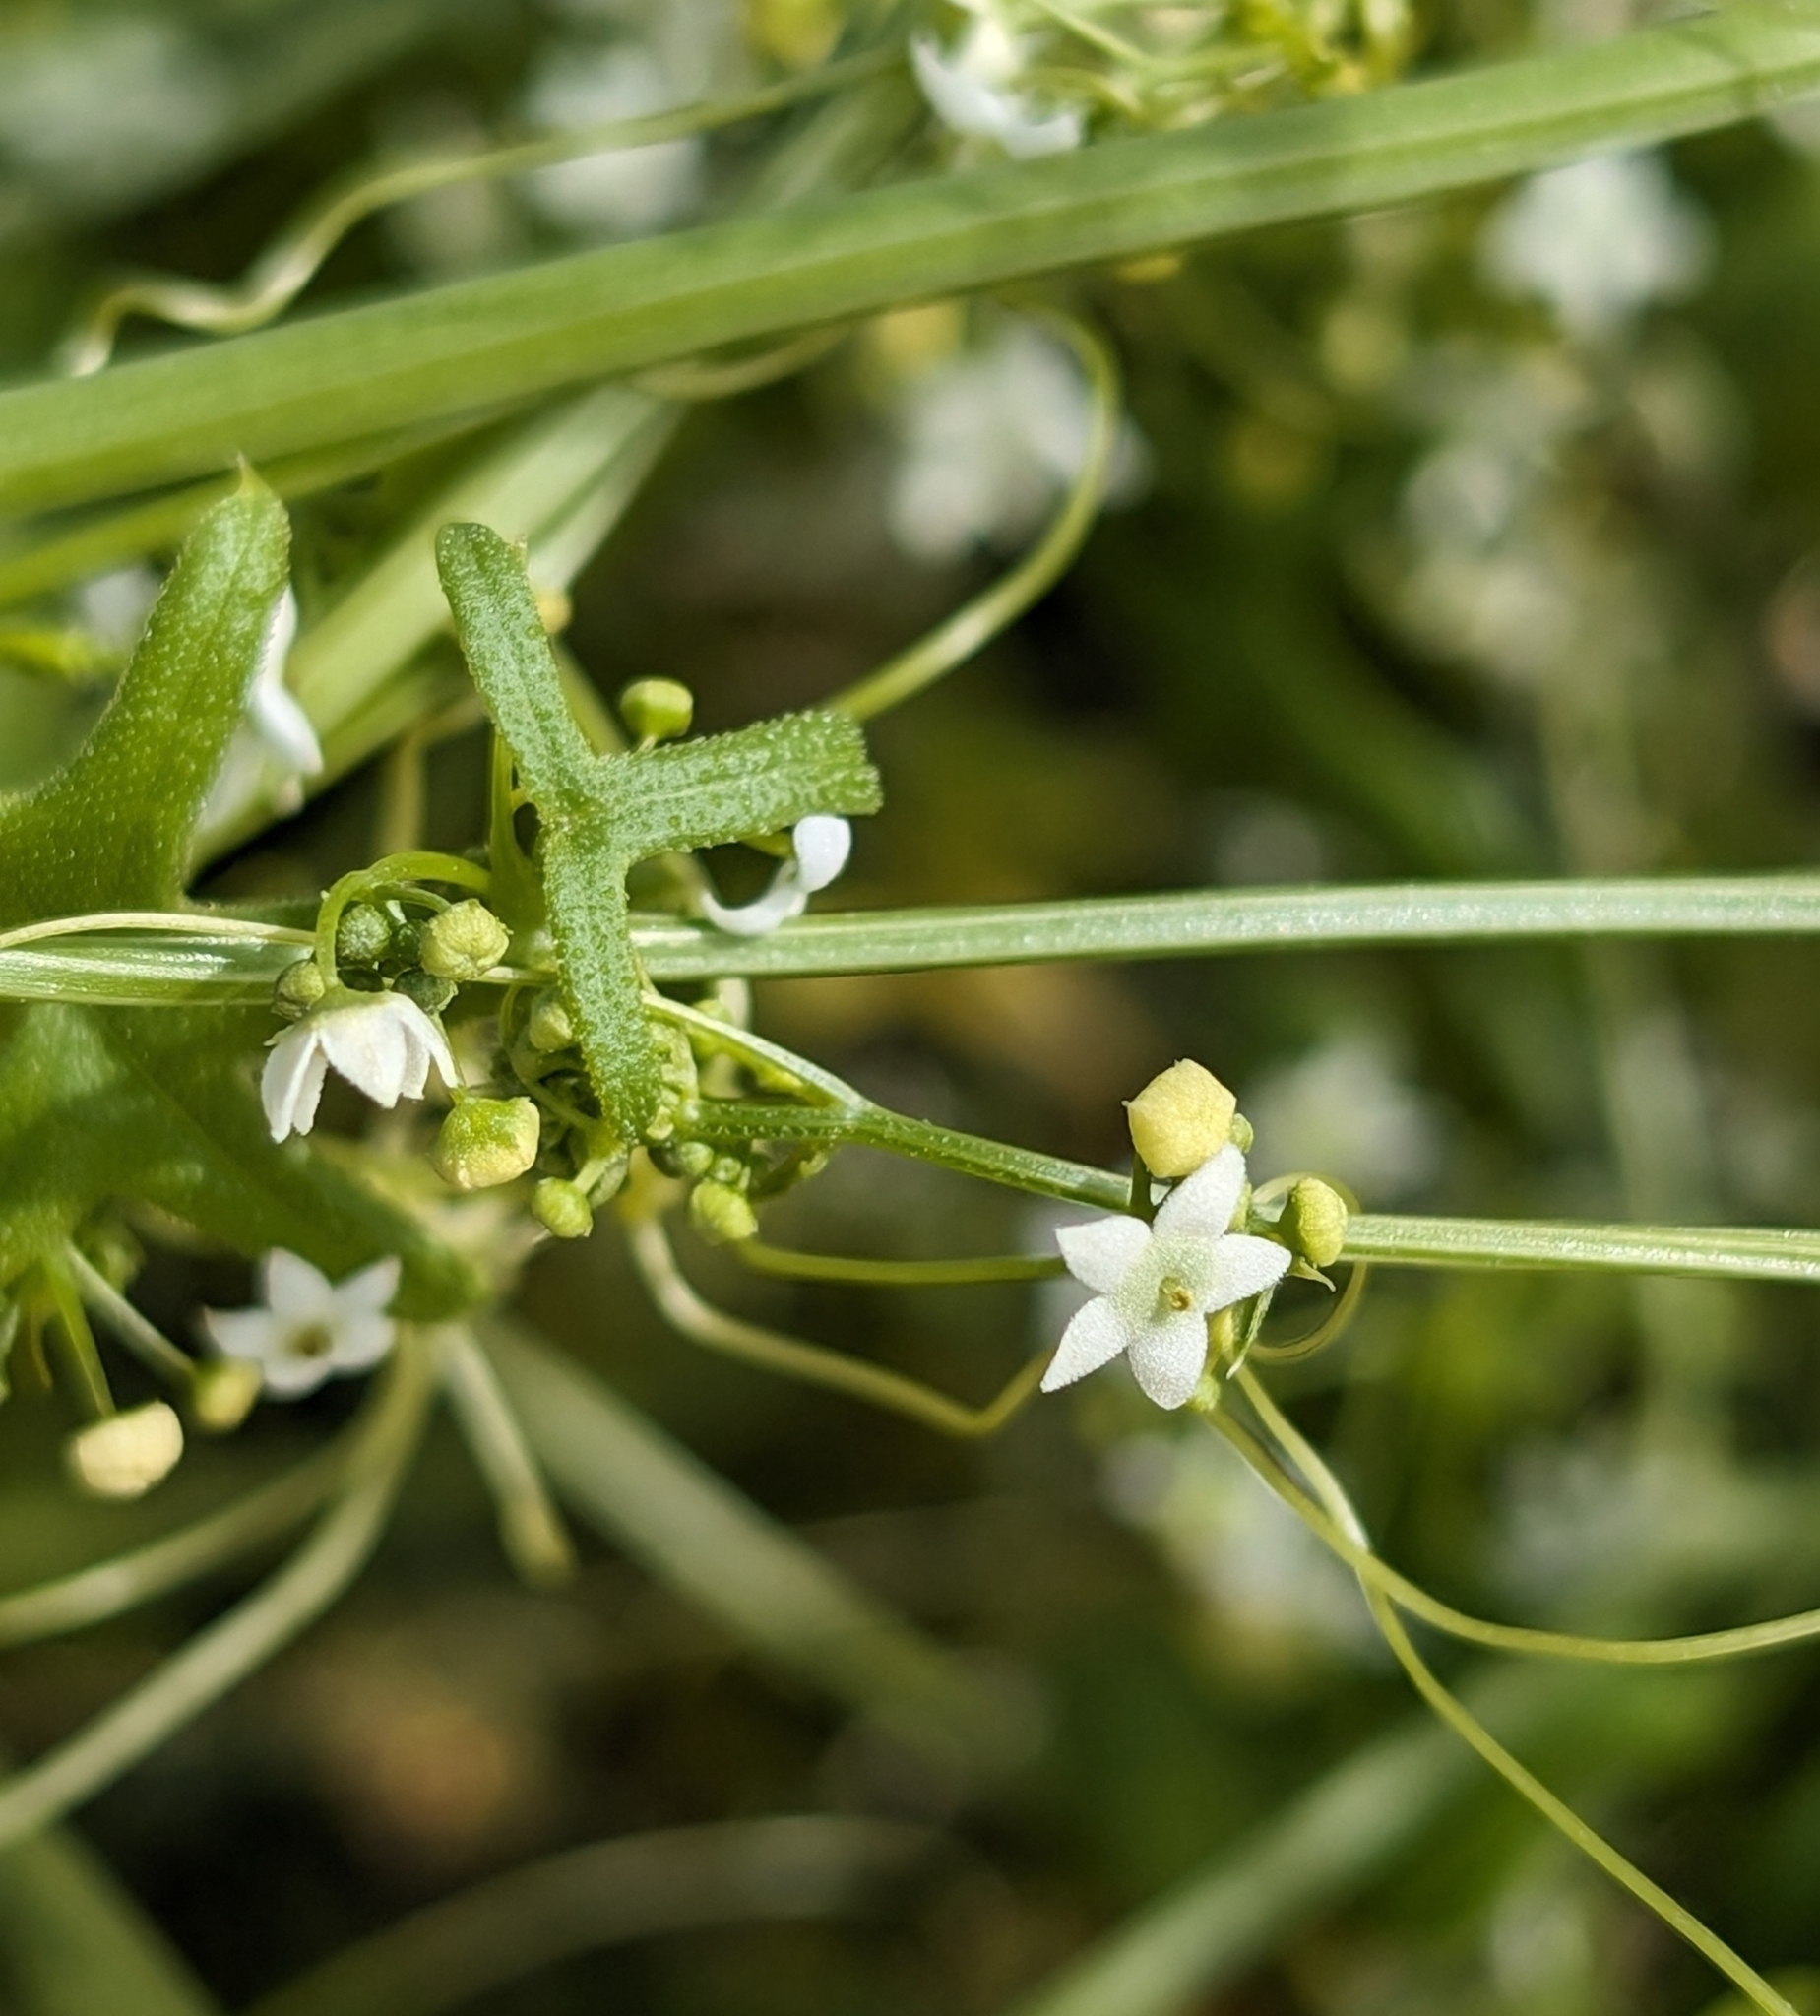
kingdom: Plantae
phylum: Tracheophyta
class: Magnoliopsida
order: Cucurbitales
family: Cucurbitaceae
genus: Echinopepon
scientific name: Echinopepon bigelovii
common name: Desert starvine
